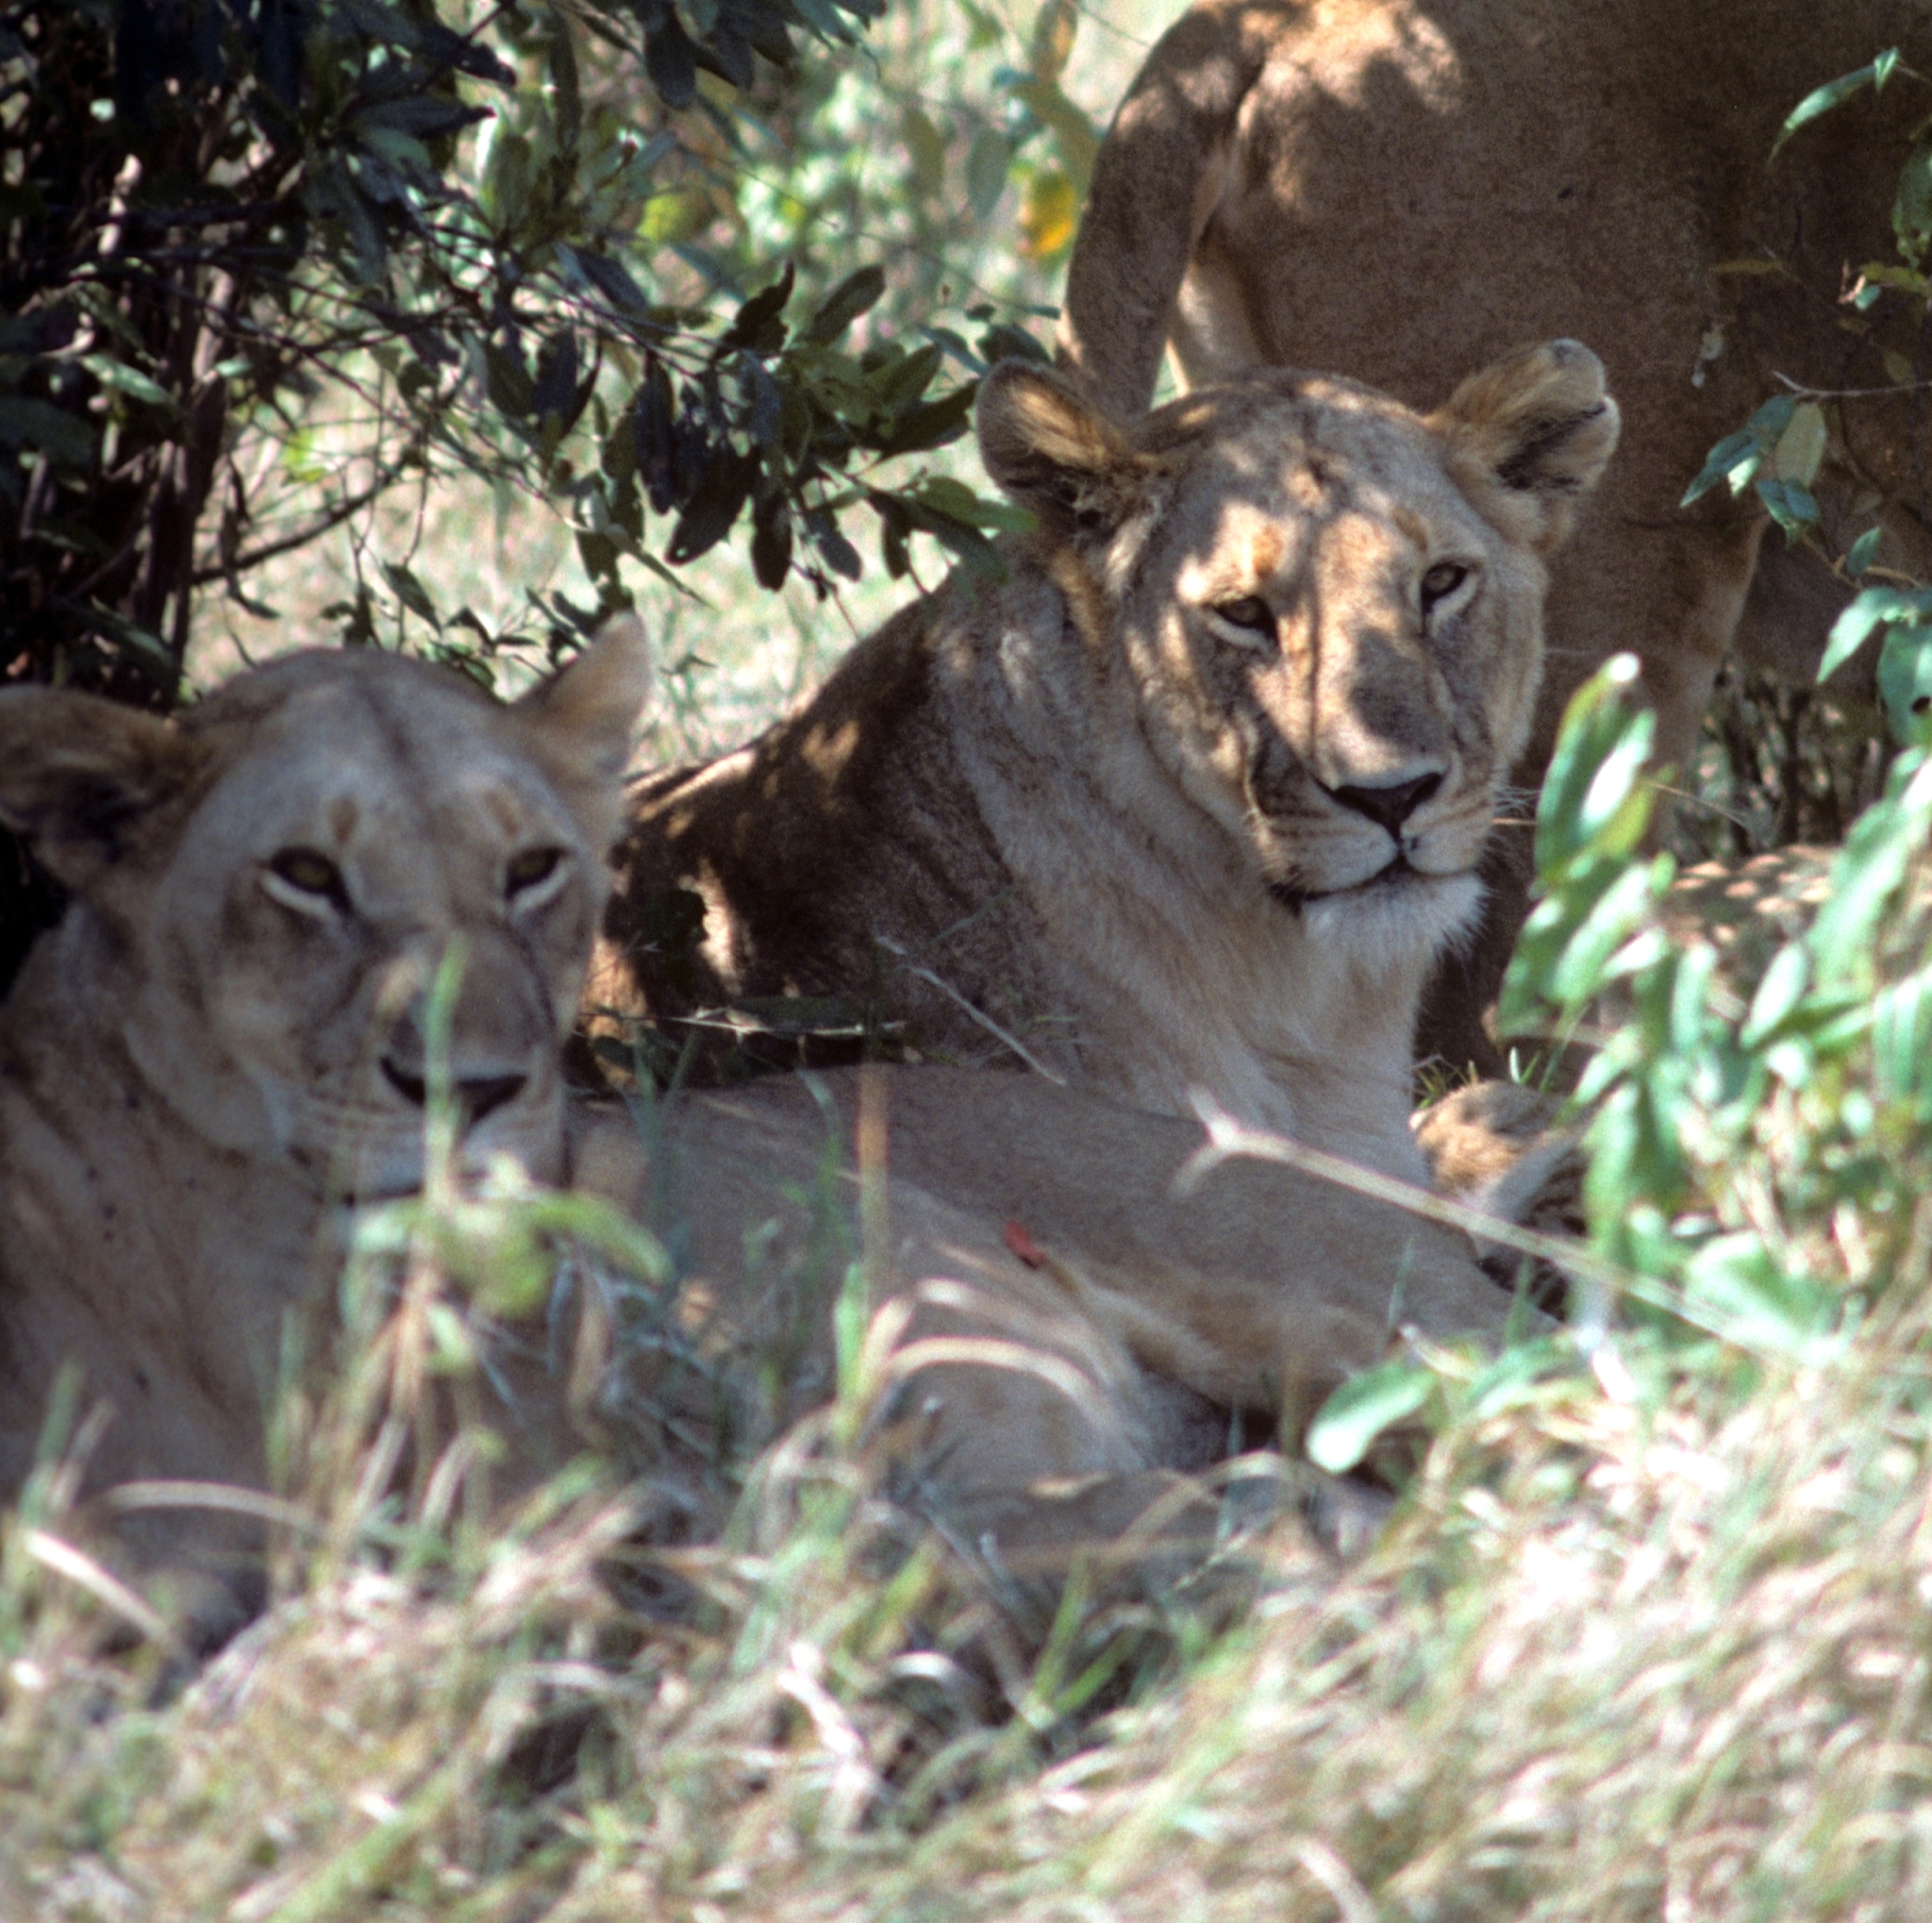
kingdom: Animalia
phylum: Chordata
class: Mammalia
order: Carnivora
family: Felidae
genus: Panthera
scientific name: Panthera leo
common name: Lion
